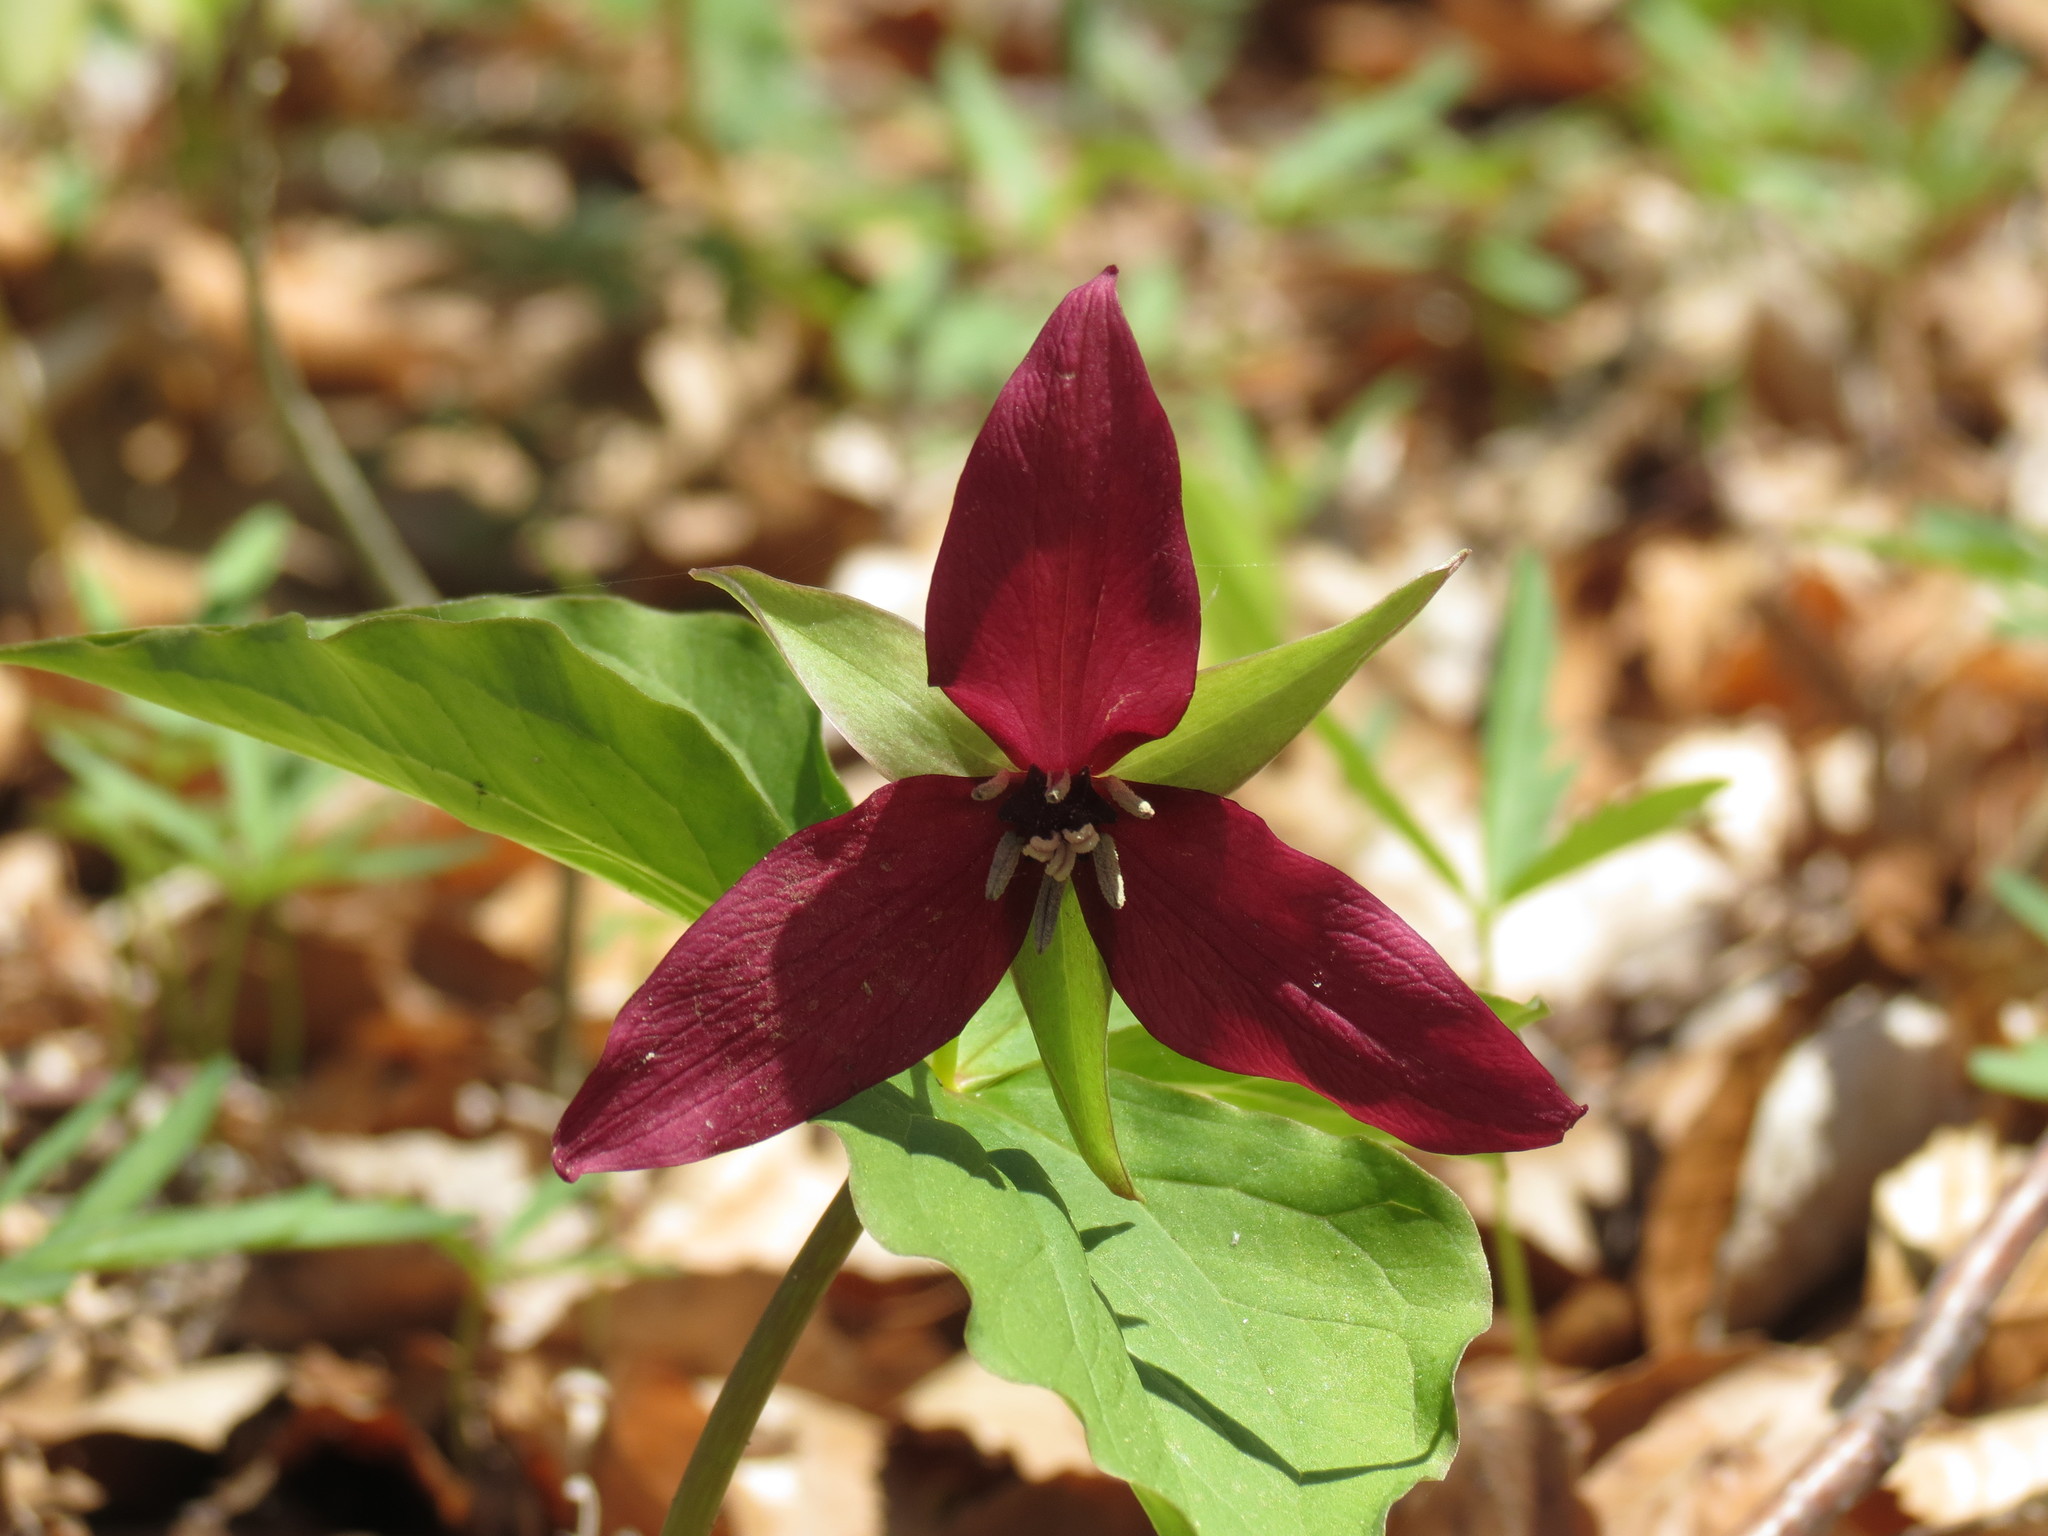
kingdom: Plantae
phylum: Tracheophyta
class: Liliopsida
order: Liliales
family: Melanthiaceae
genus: Trillium
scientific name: Trillium erectum
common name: Purple trillium
